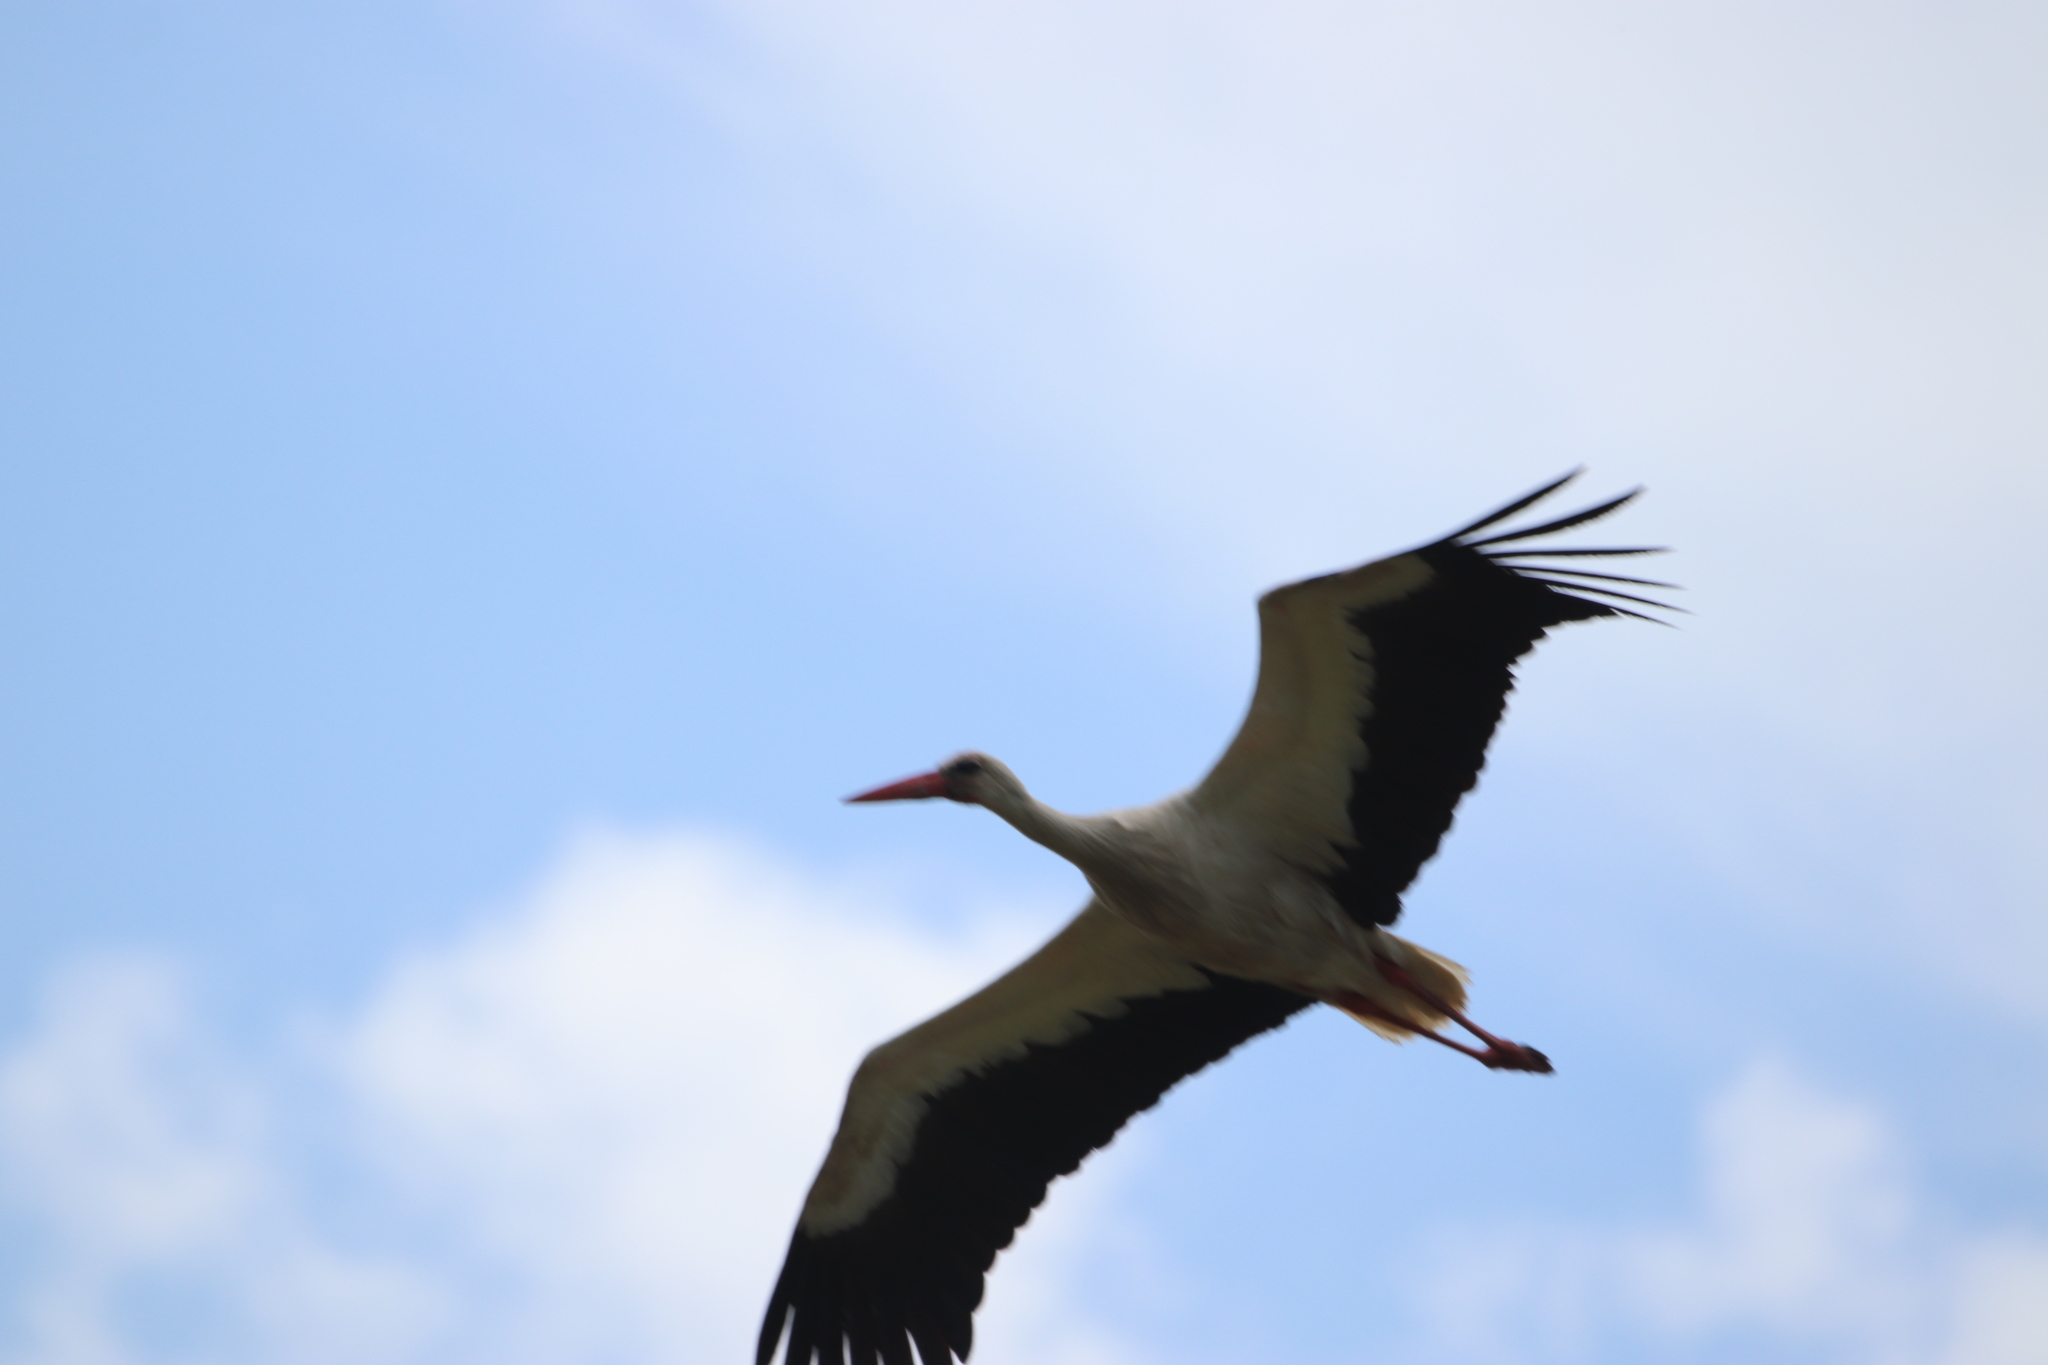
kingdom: Animalia
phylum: Chordata
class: Aves
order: Ciconiiformes
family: Ciconiidae
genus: Ciconia
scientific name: Ciconia ciconia
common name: White stork
